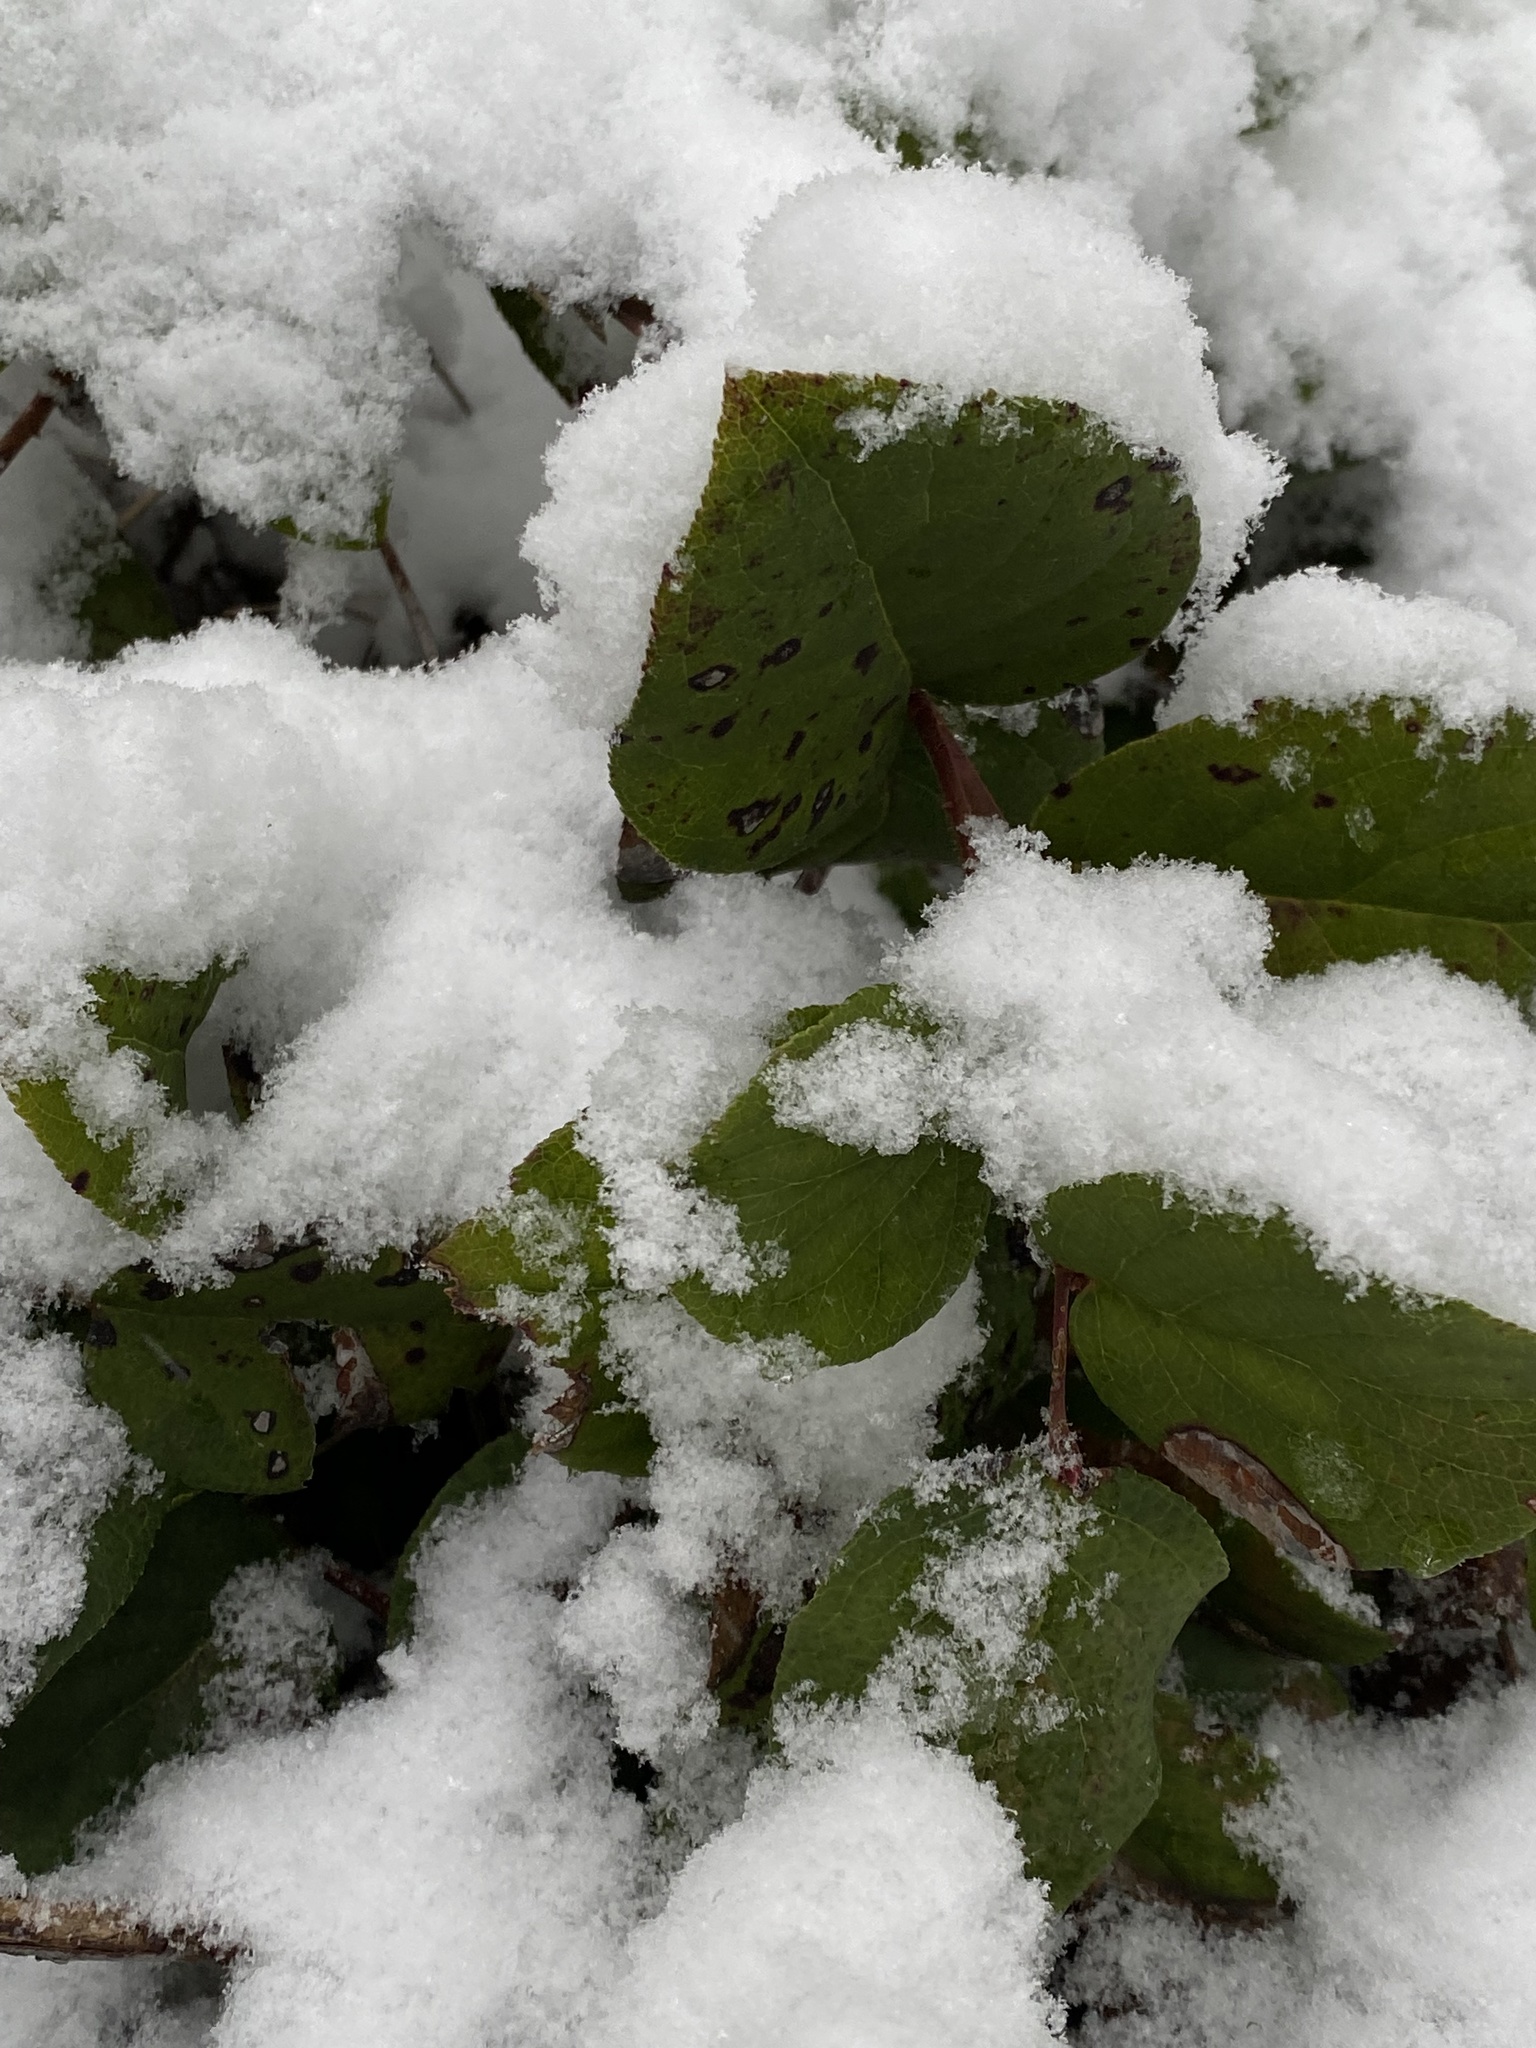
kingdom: Plantae
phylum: Tracheophyta
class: Magnoliopsida
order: Ericales
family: Ericaceae
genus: Gaultheria
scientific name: Gaultheria shallon
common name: Shallon
